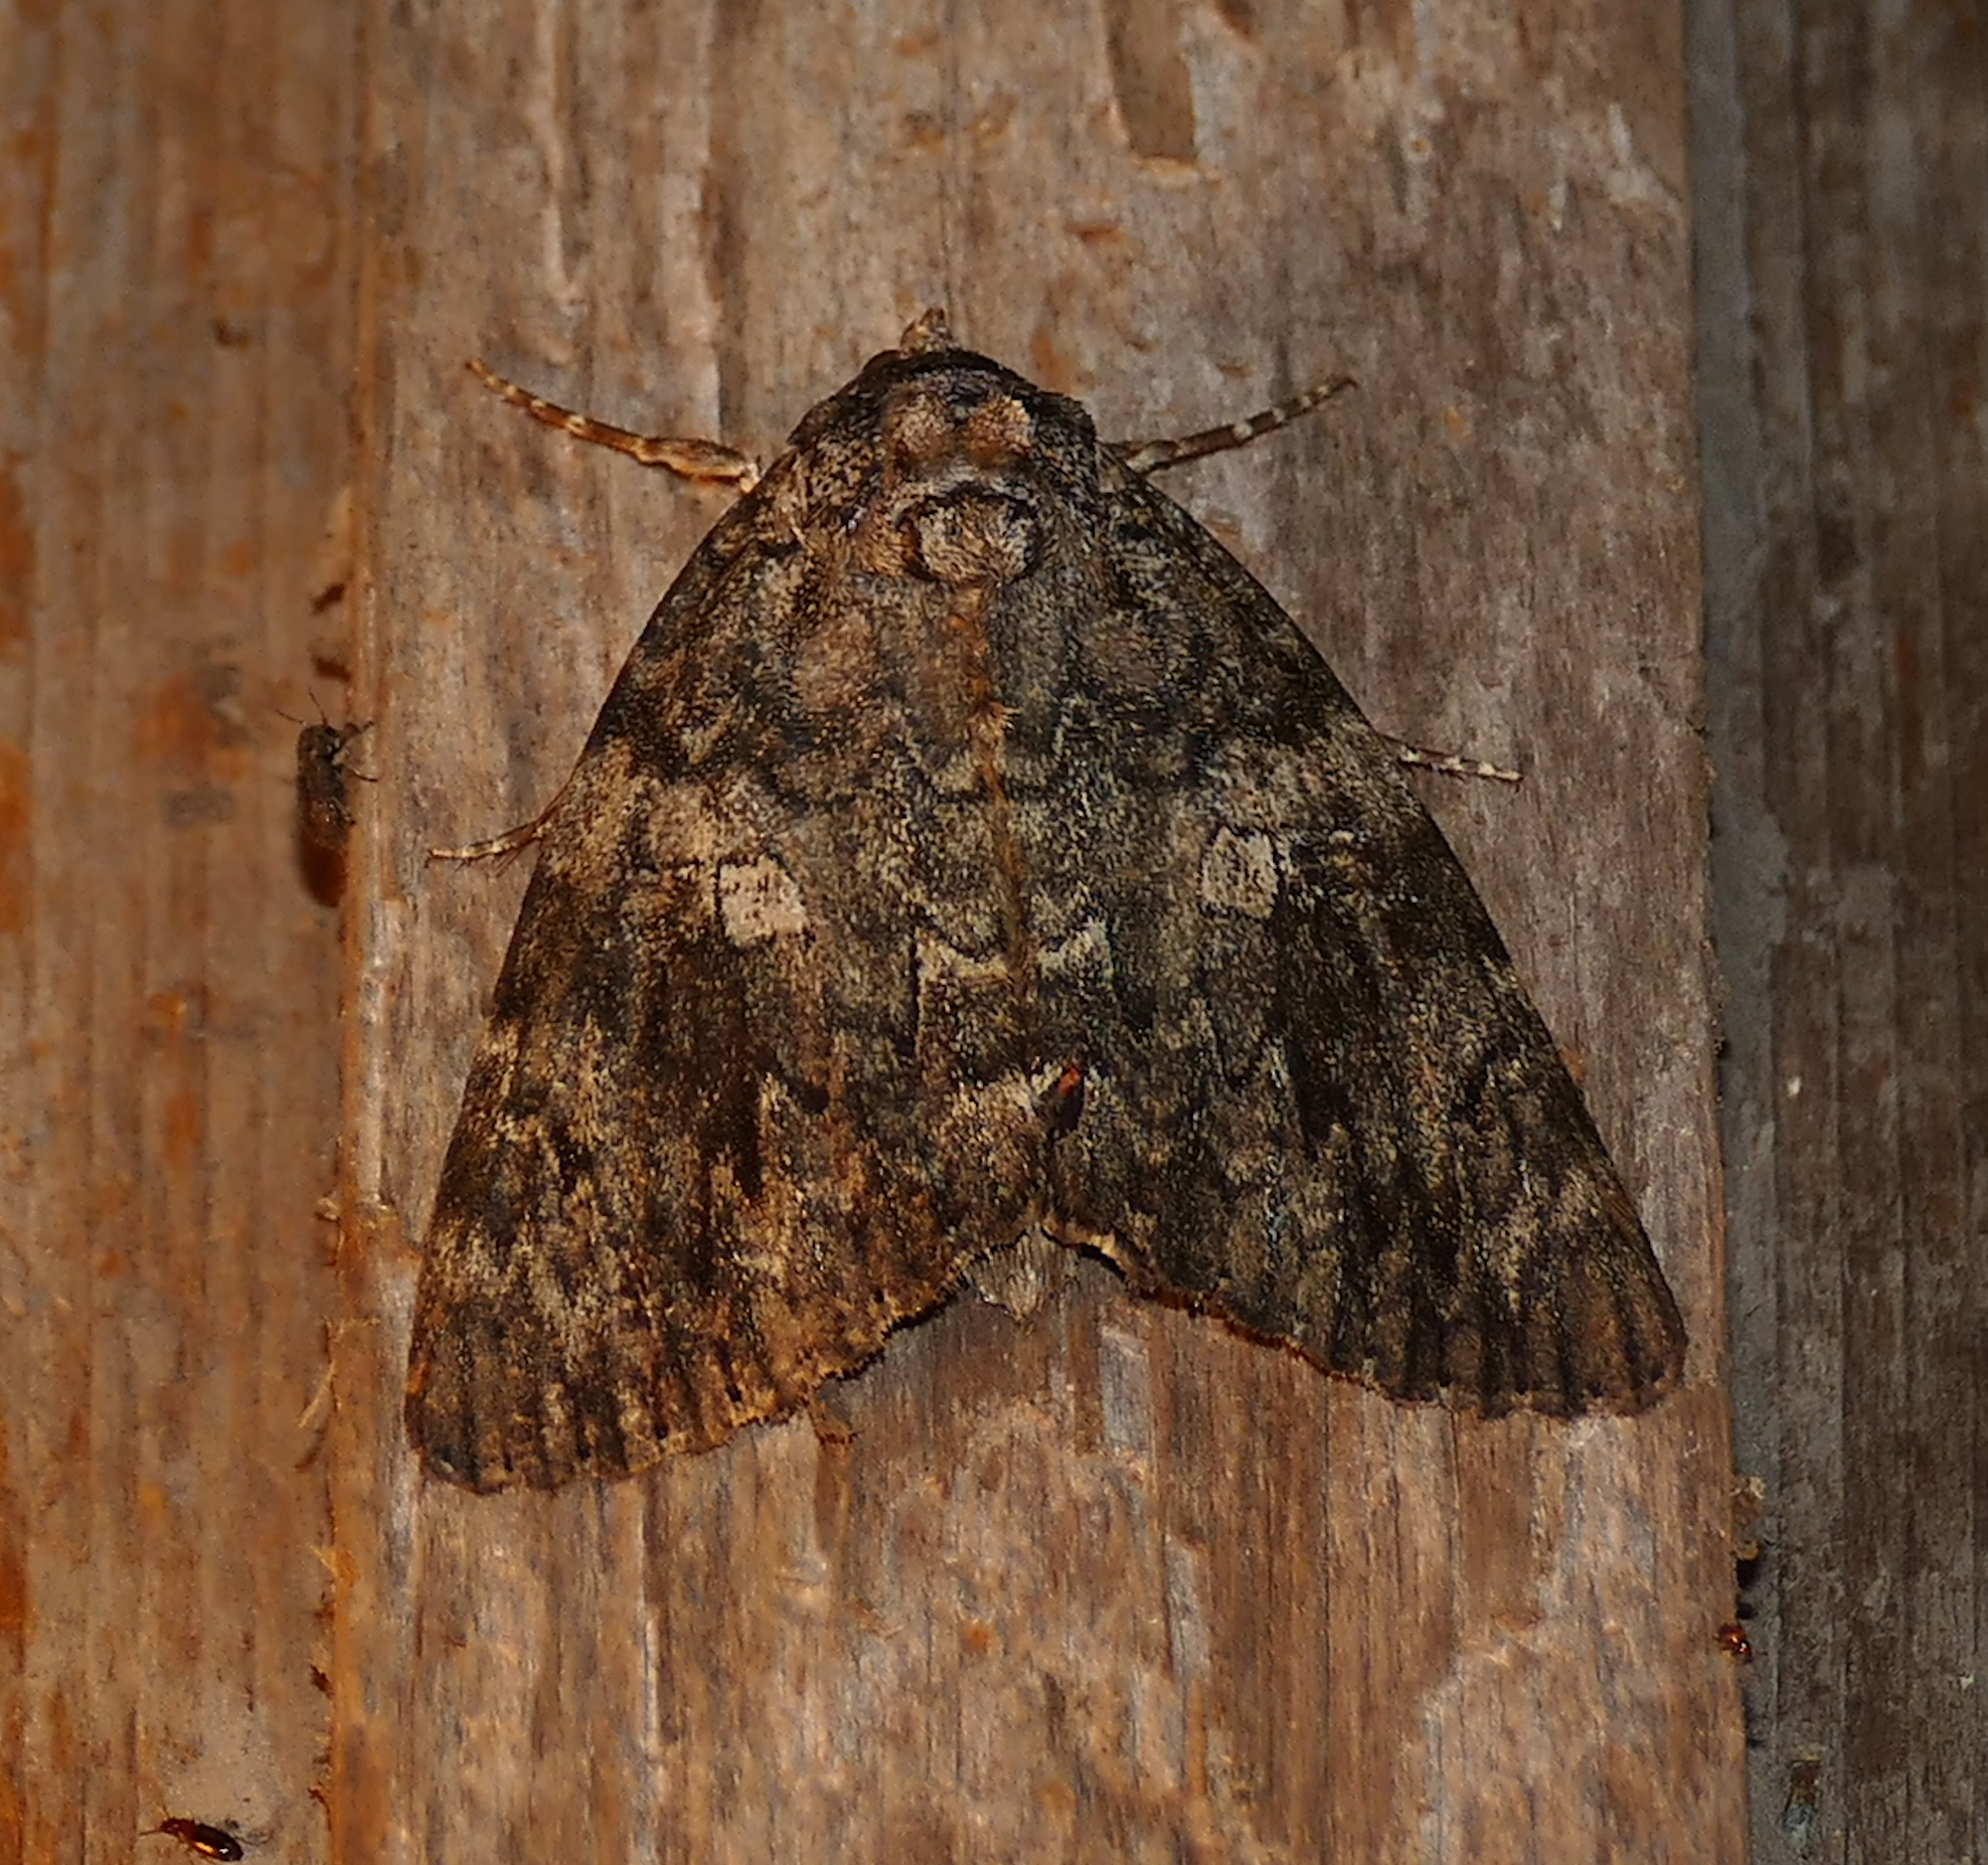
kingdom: Animalia
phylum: Arthropoda
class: Insecta
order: Lepidoptera
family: Erebidae
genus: Catocala
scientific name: Catocala ilia
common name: Ilia underwing
